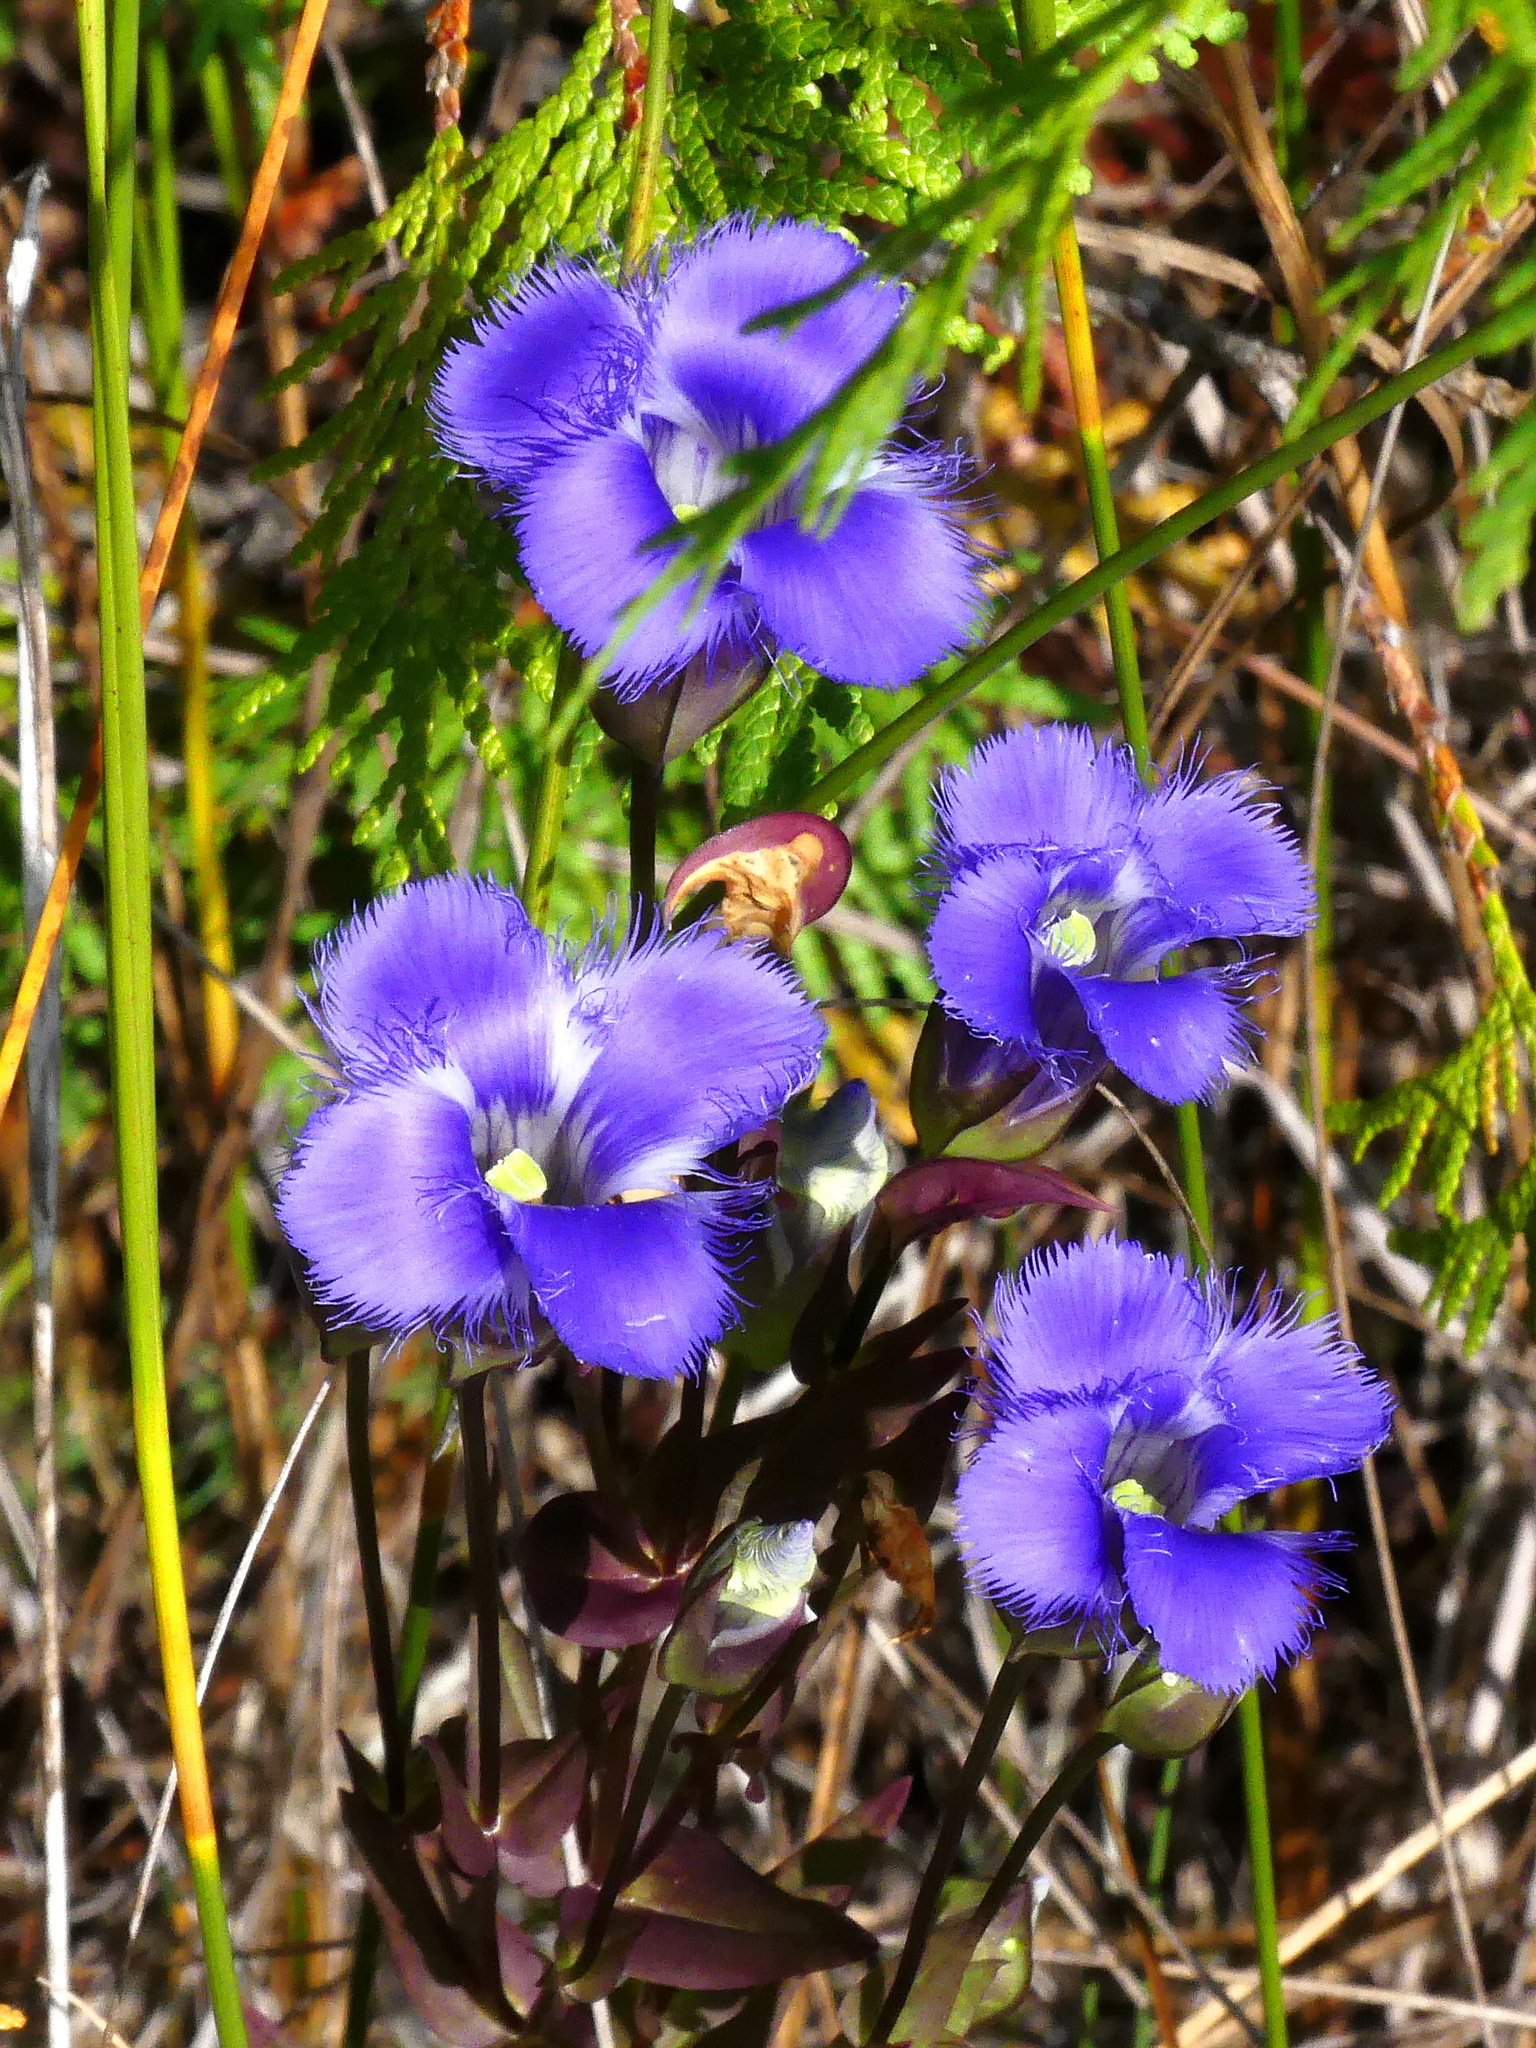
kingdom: Plantae
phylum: Tracheophyta
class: Magnoliopsida
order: Gentianales
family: Gentianaceae
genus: Gentianopsis
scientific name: Gentianopsis crinita
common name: Fringed-gentian
